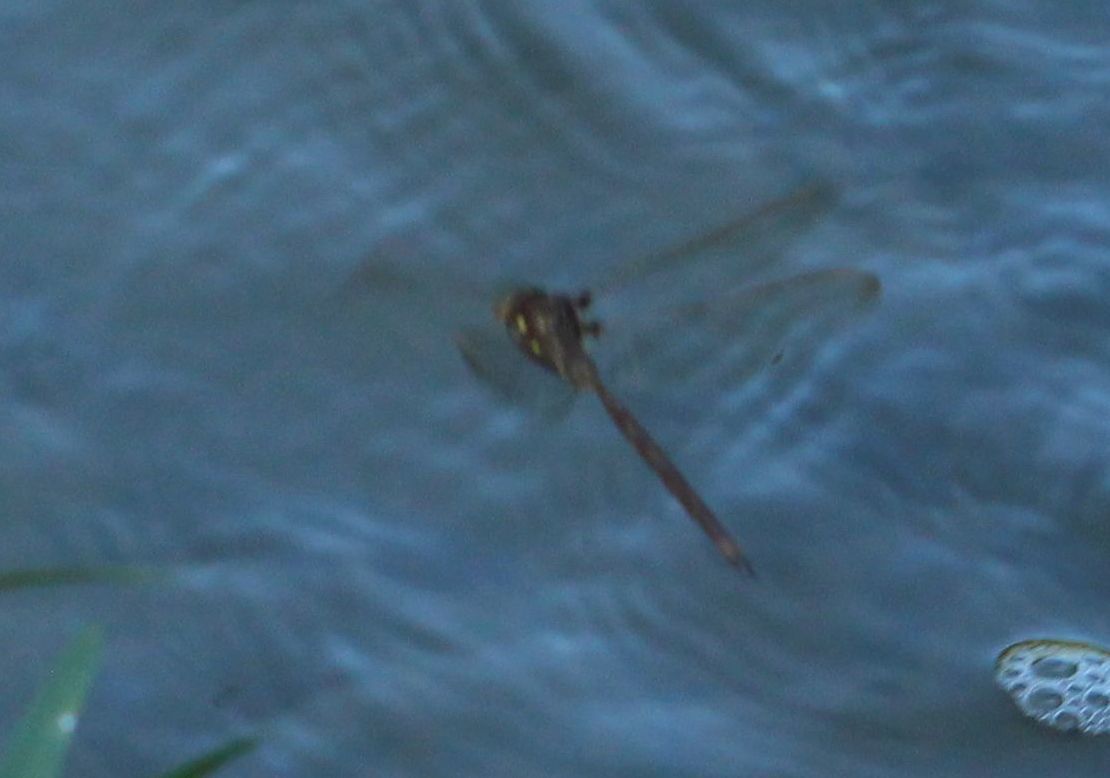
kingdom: Animalia
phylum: Arthropoda
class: Insecta
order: Odonata
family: Aeshnidae
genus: Boyeria
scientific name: Boyeria vinosa
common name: Fawn darner
